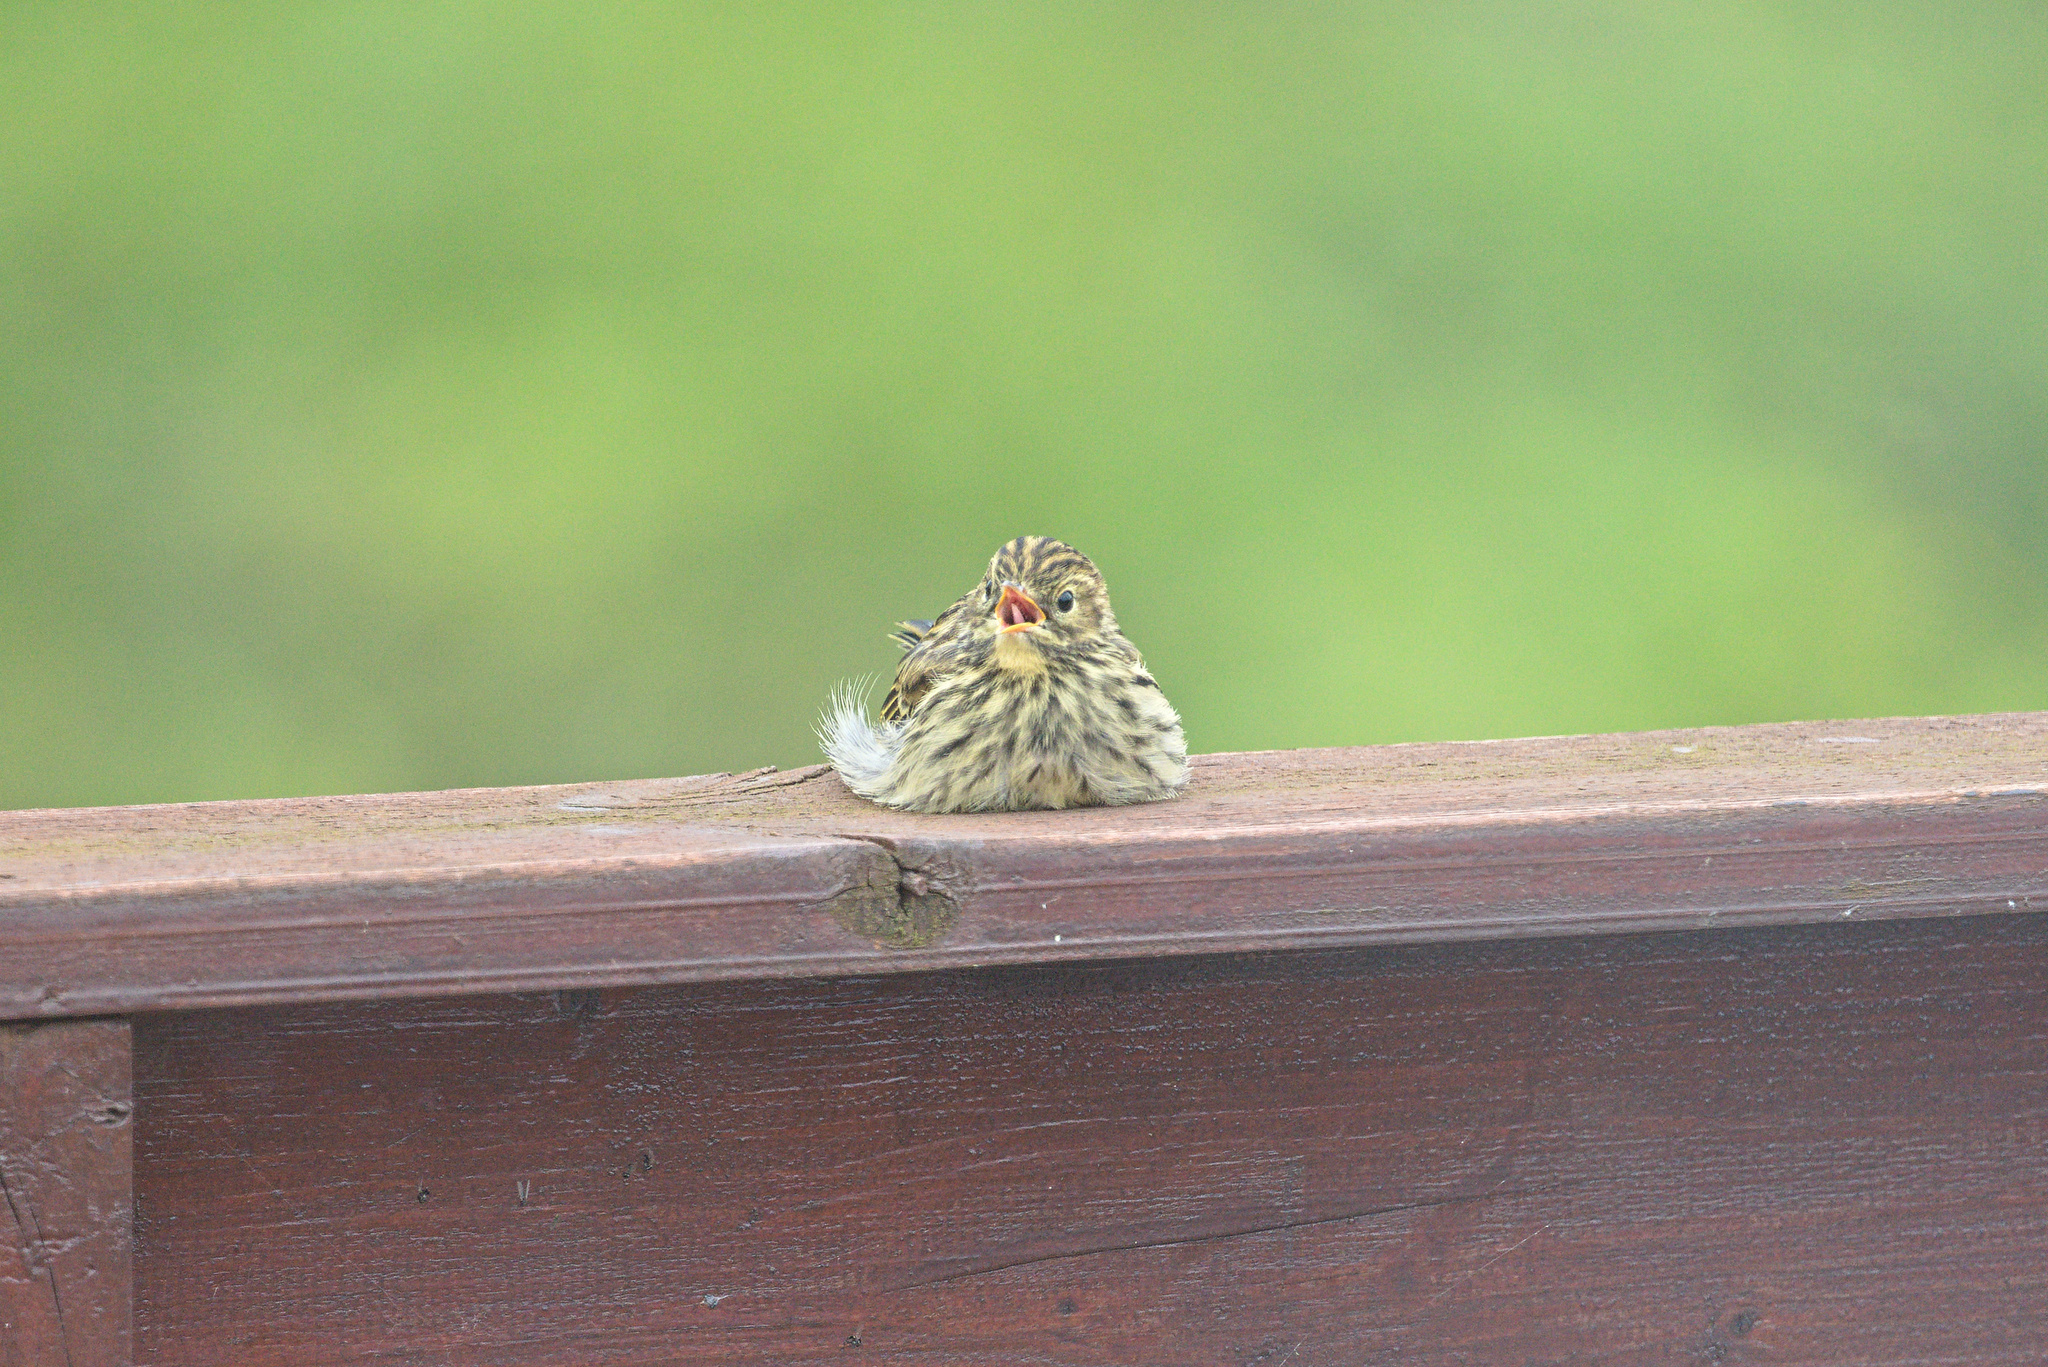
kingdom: Animalia
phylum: Chordata
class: Aves
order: Passeriformes
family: Motacillidae
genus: Anthus
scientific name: Anthus pratensis
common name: Meadow pipit
